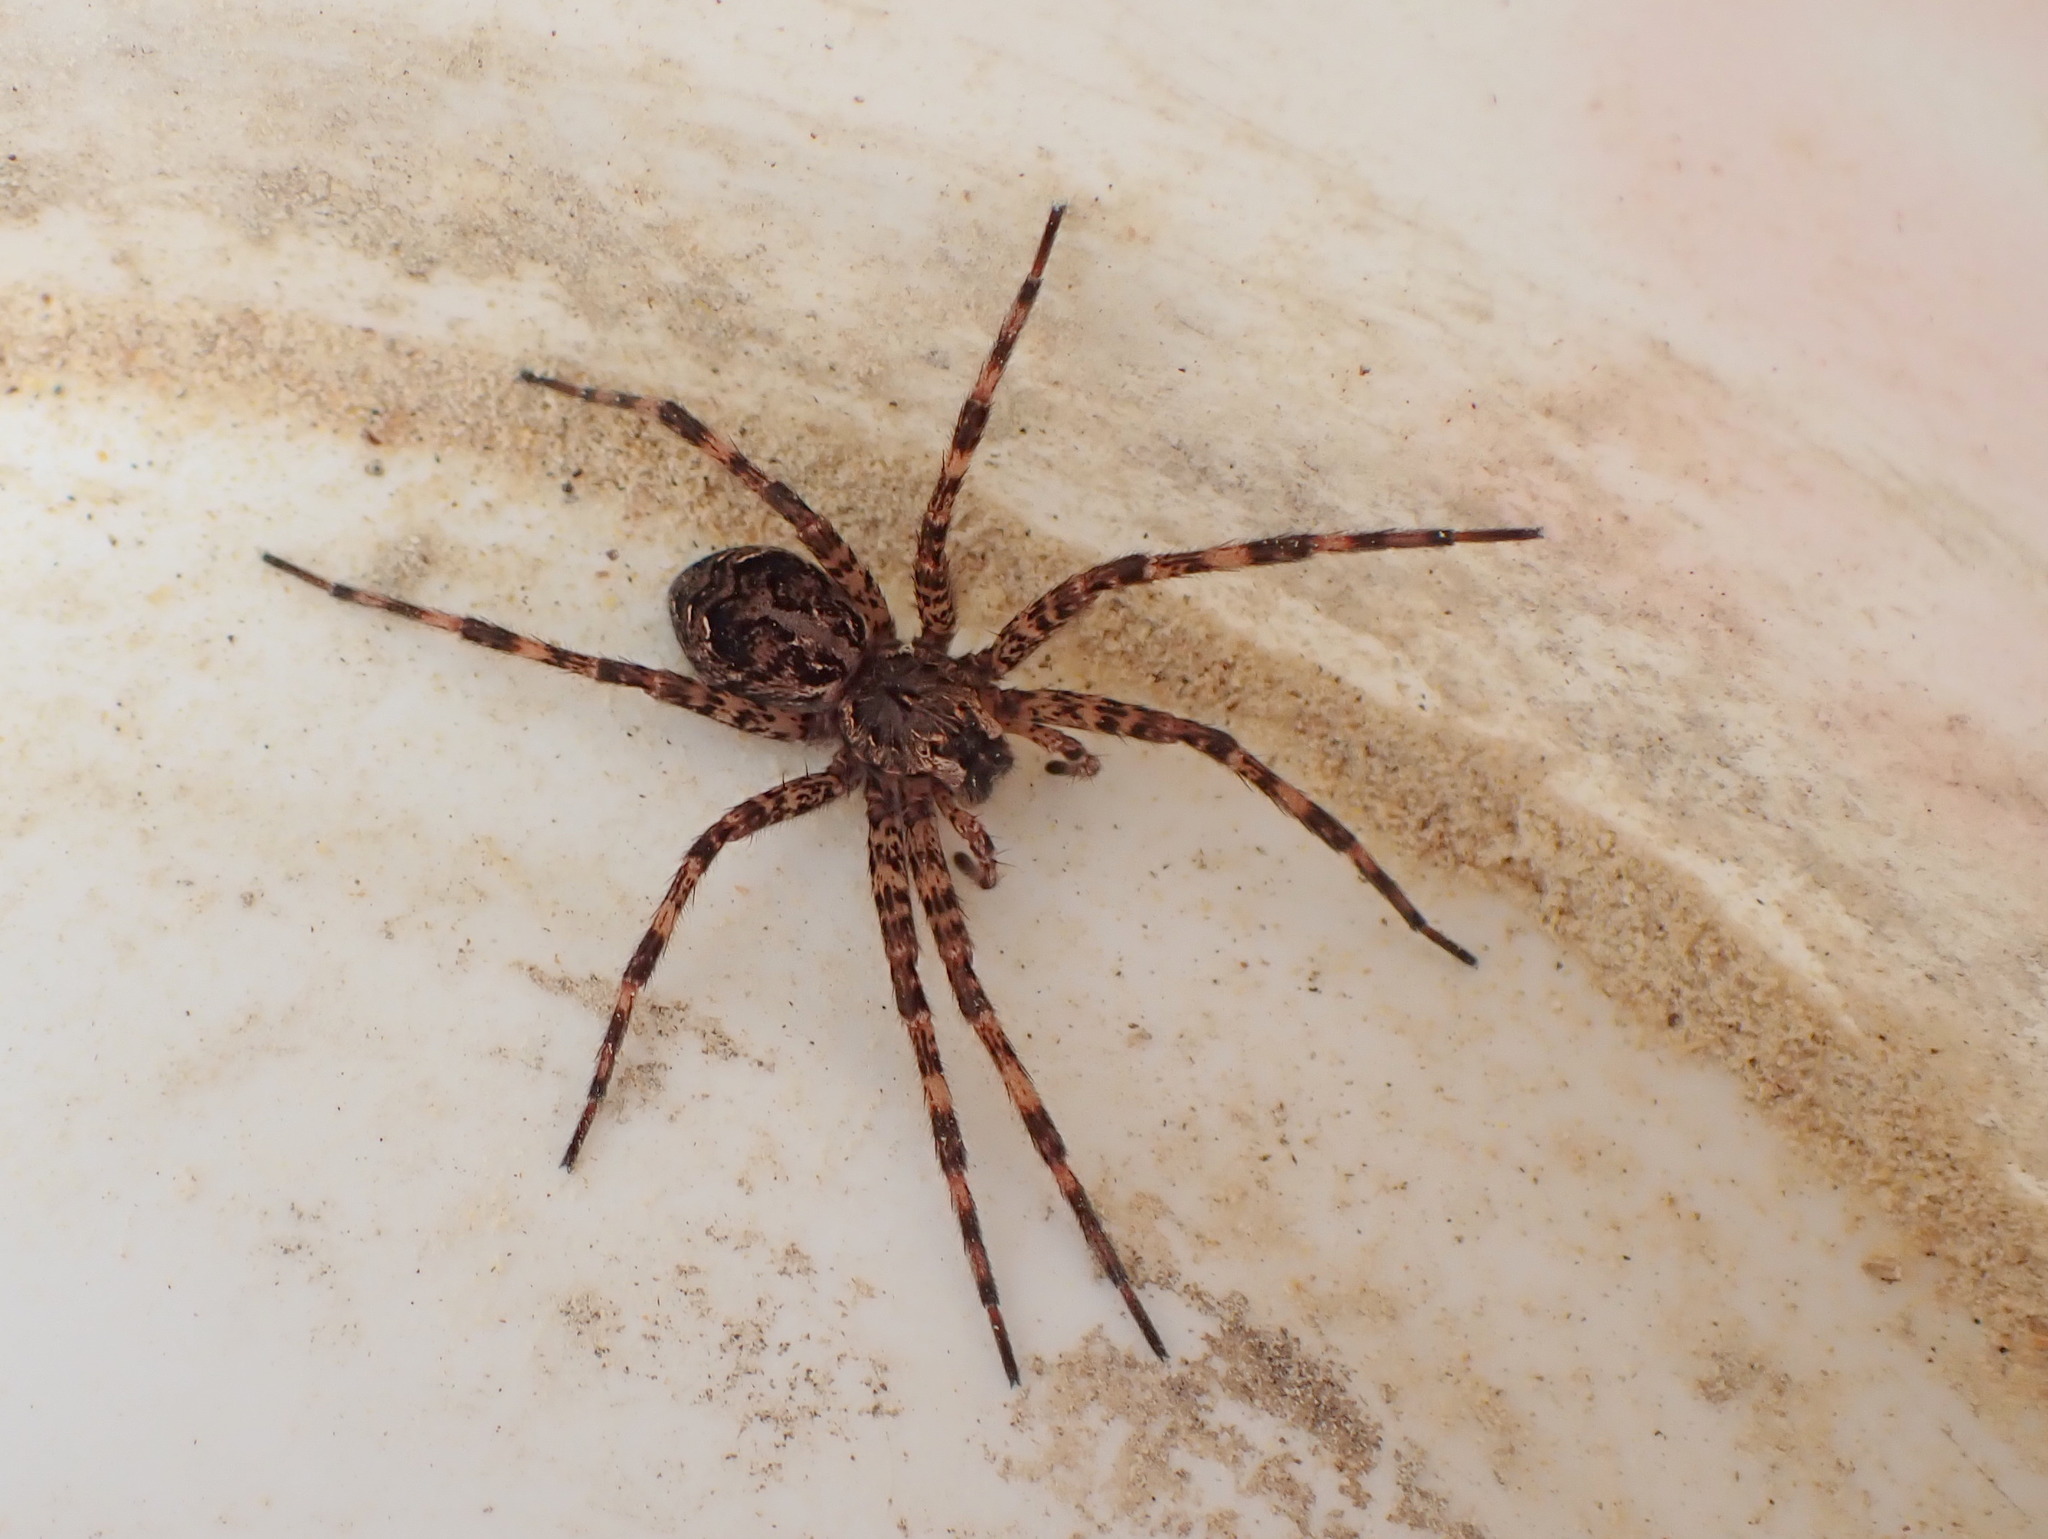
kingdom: Animalia
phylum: Arthropoda
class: Arachnida
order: Araneae
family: Pisauridae
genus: Dolomedes
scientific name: Dolomedes tenebrosus
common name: Dark fishing spider
